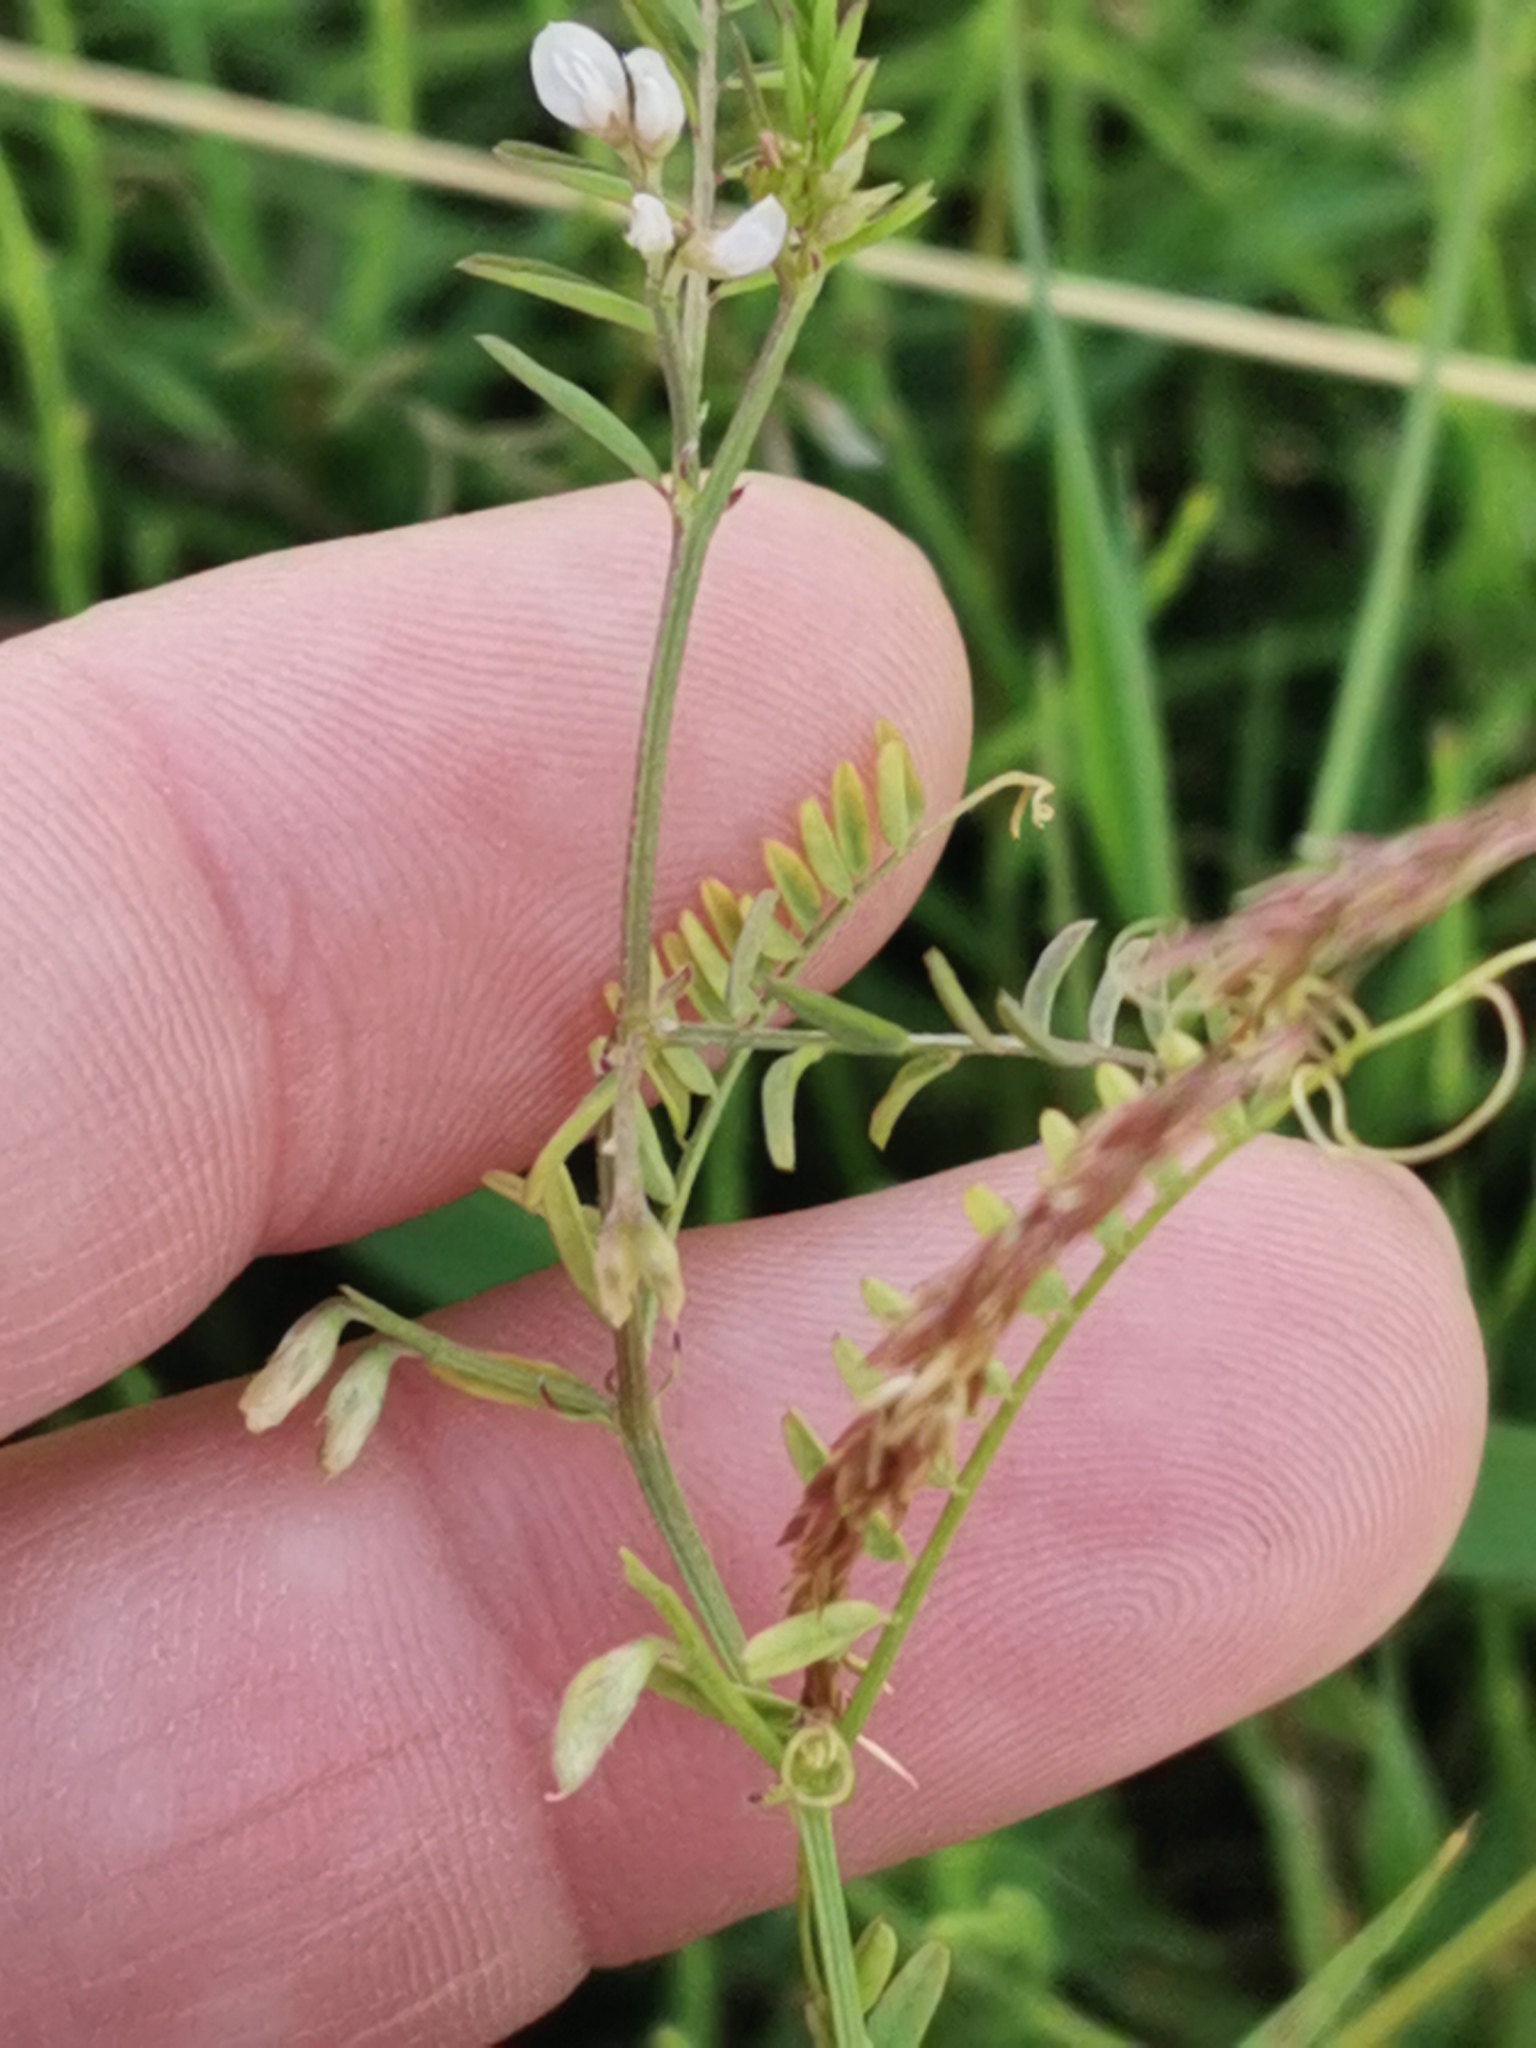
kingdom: Plantae
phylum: Tracheophyta
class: Magnoliopsida
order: Fabales
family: Fabaceae
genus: Vicia
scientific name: Vicia hirsuta
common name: Tiny vetch
